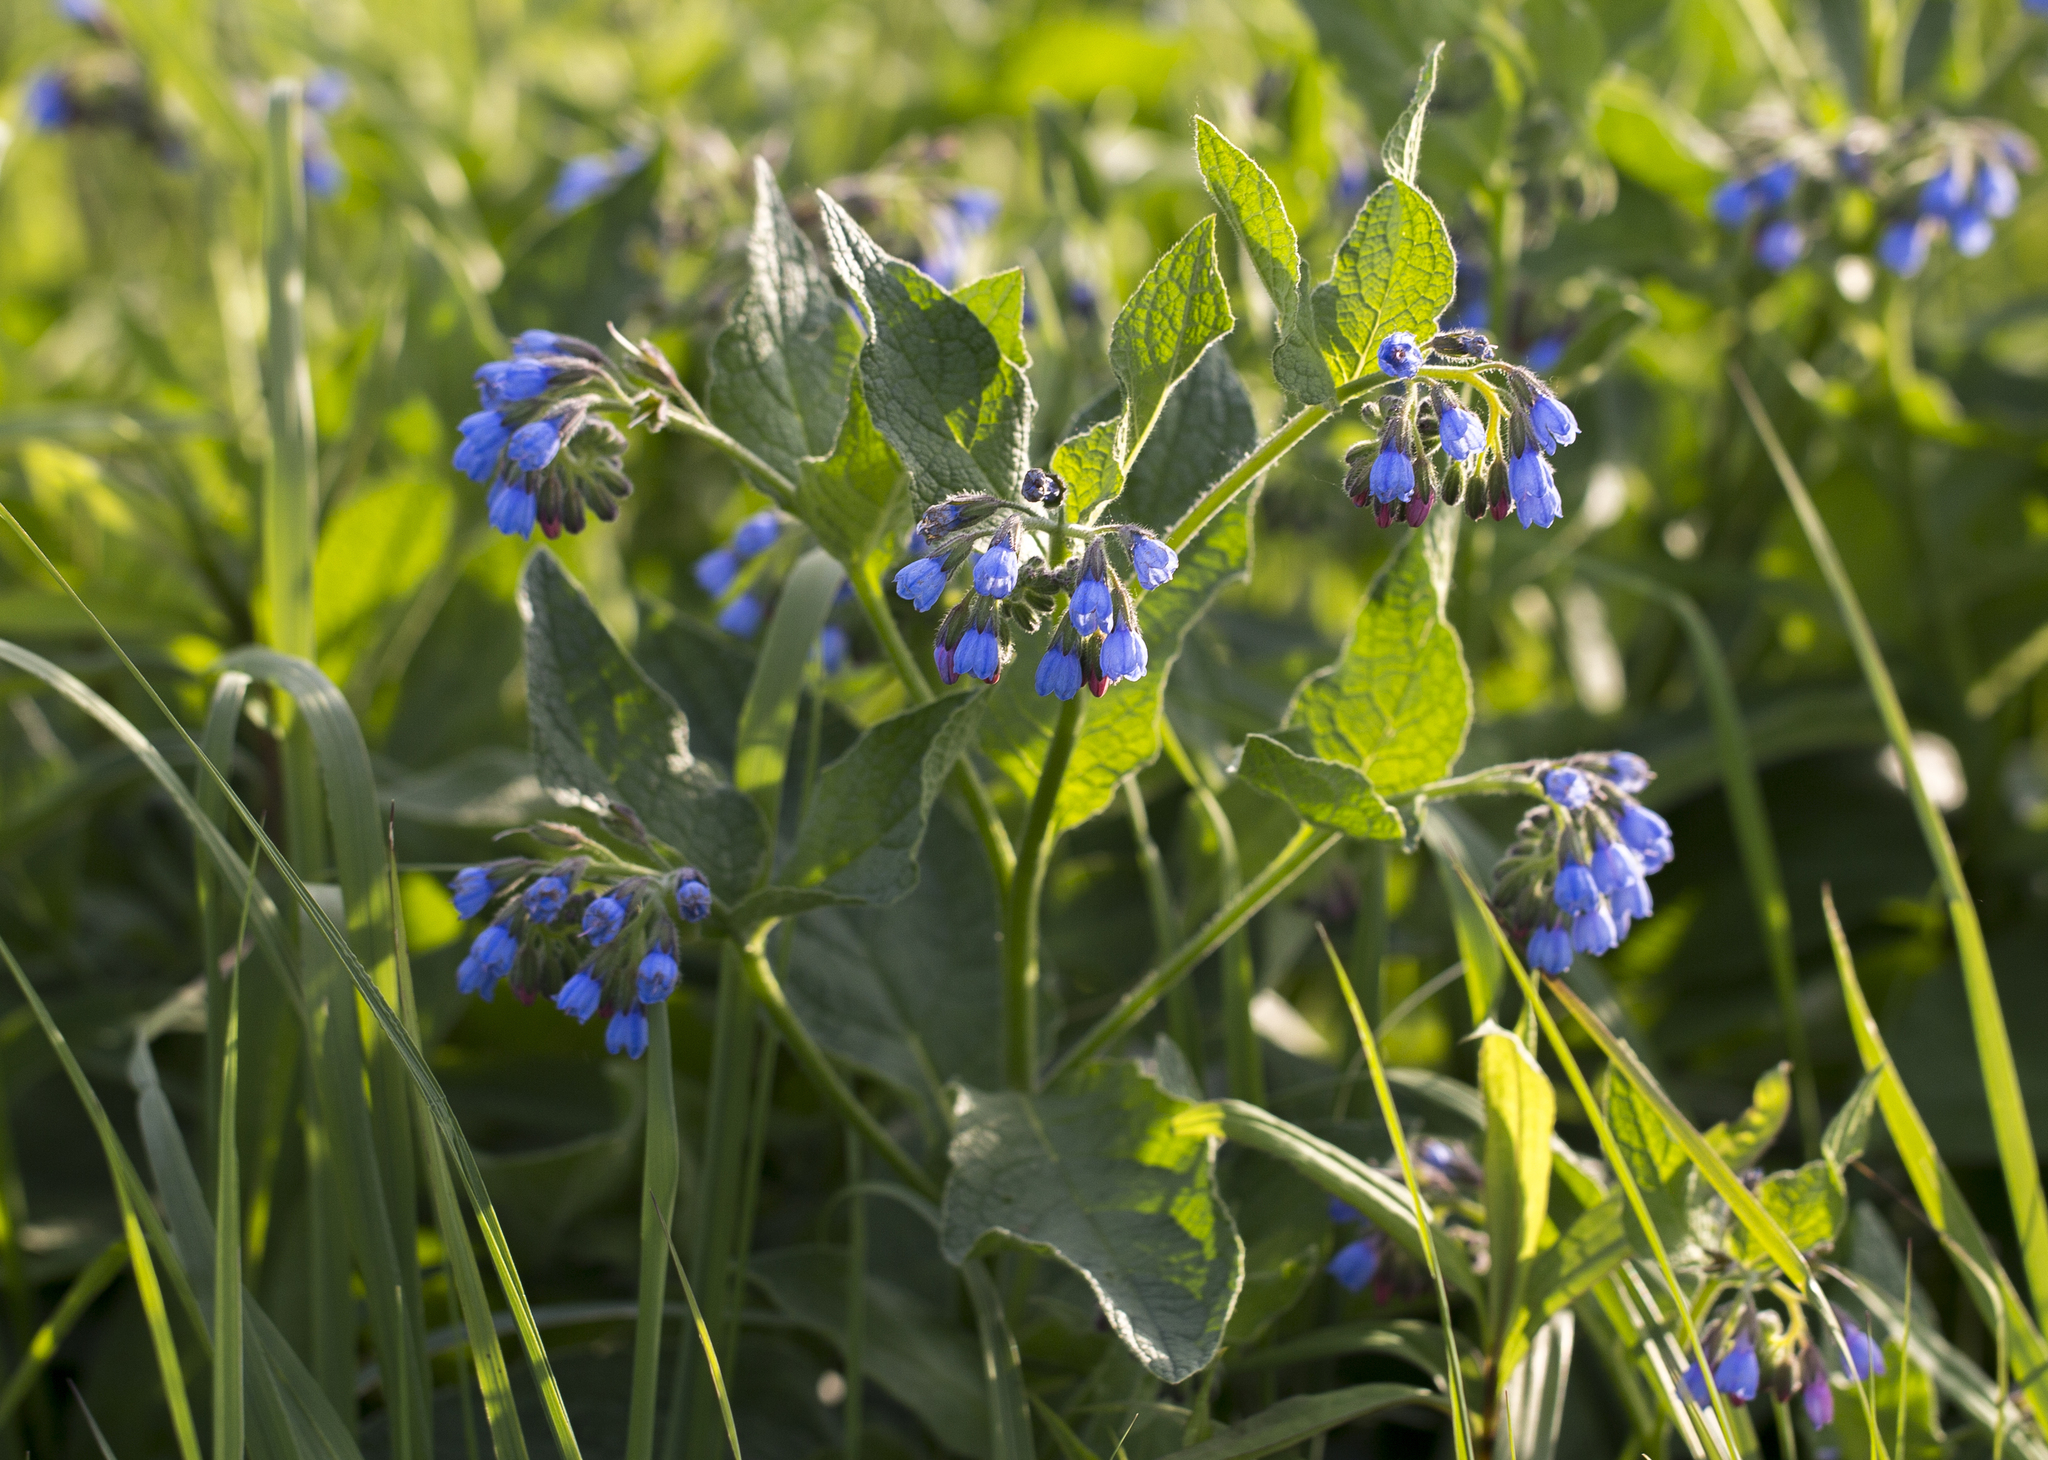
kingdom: Plantae
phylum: Tracheophyta
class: Magnoliopsida
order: Boraginales
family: Boraginaceae
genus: Symphytum
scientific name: Symphytum caucasicum
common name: Caucasian comfrey
